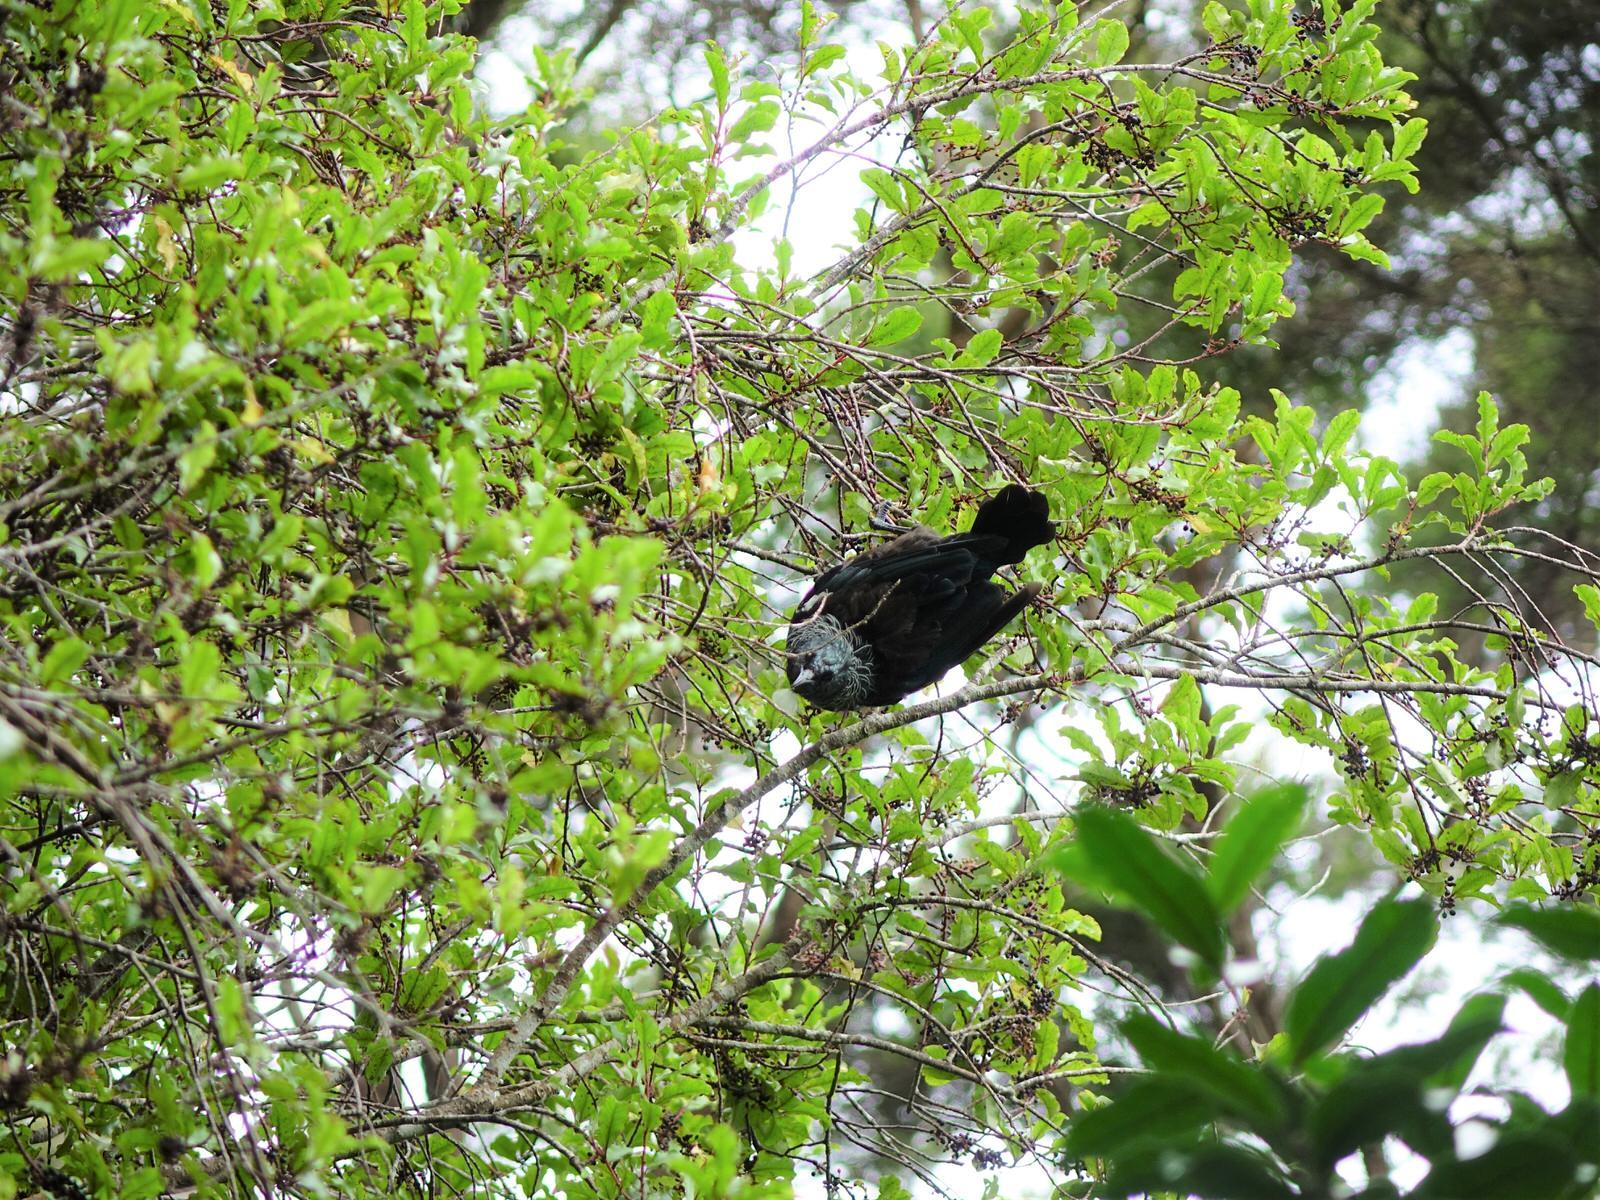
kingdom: Animalia
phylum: Chordata
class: Aves
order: Passeriformes
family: Meliphagidae
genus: Prosthemadera
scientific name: Prosthemadera novaeseelandiae
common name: Tui
